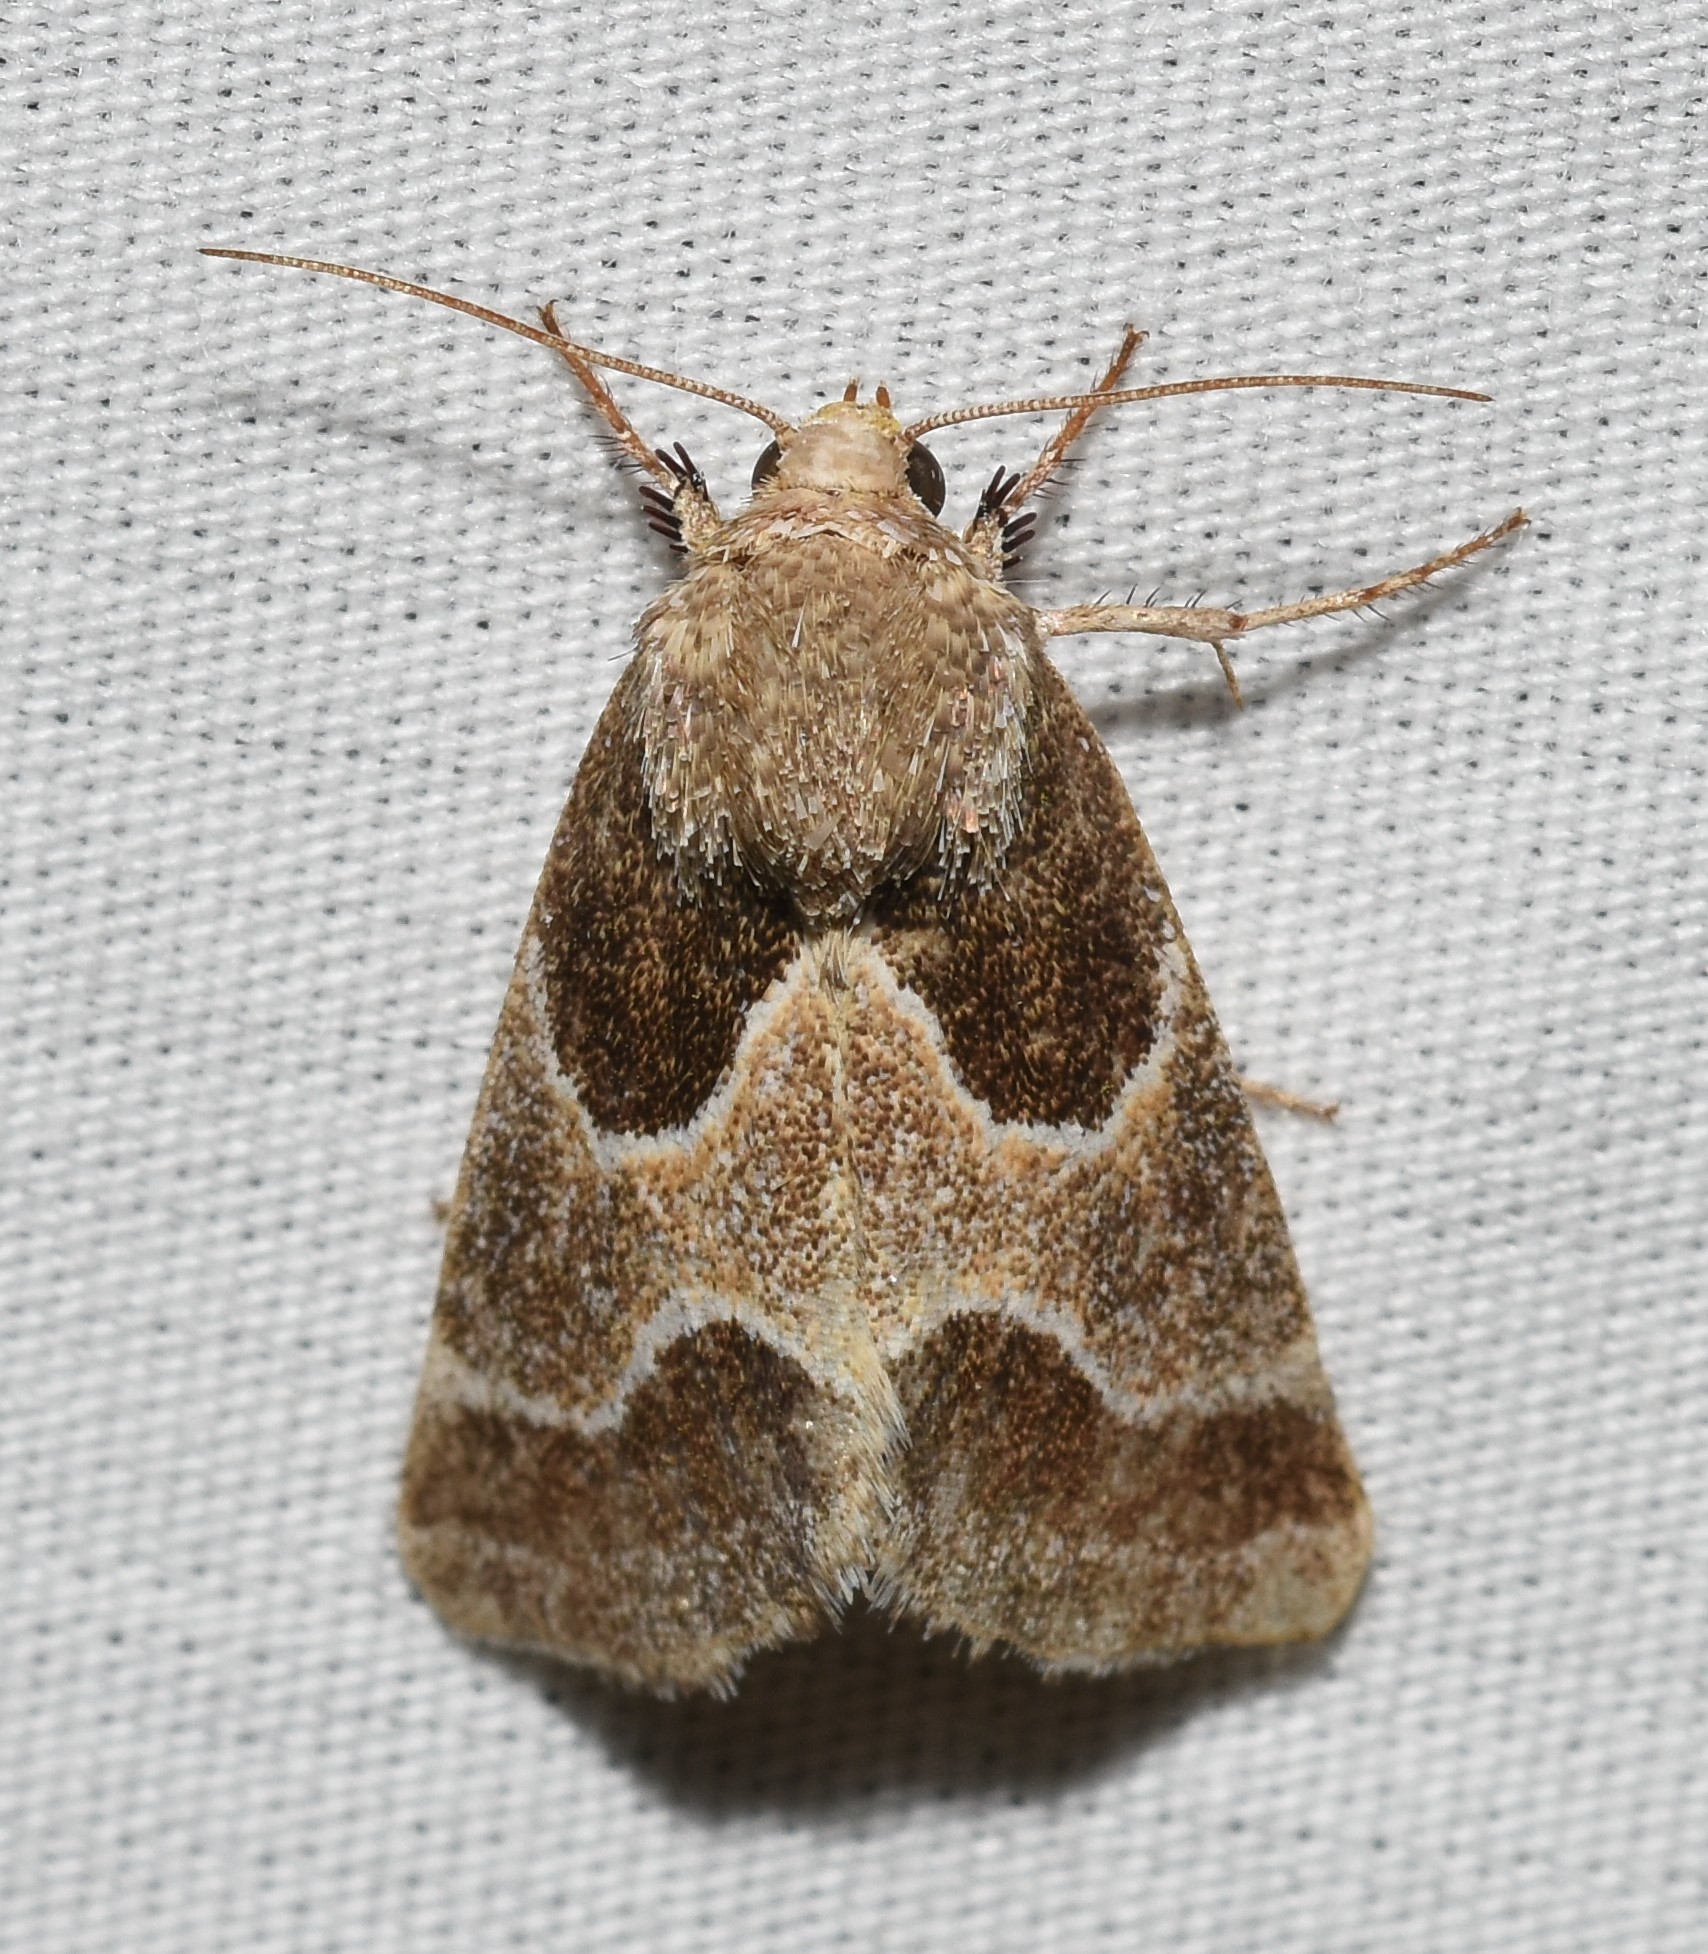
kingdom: Animalia
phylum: Arthropoda
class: Insecta
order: Lepidoptera
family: Noctuidae
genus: Schinia
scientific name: Schinia rivulosa
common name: Scarce meal-moth
